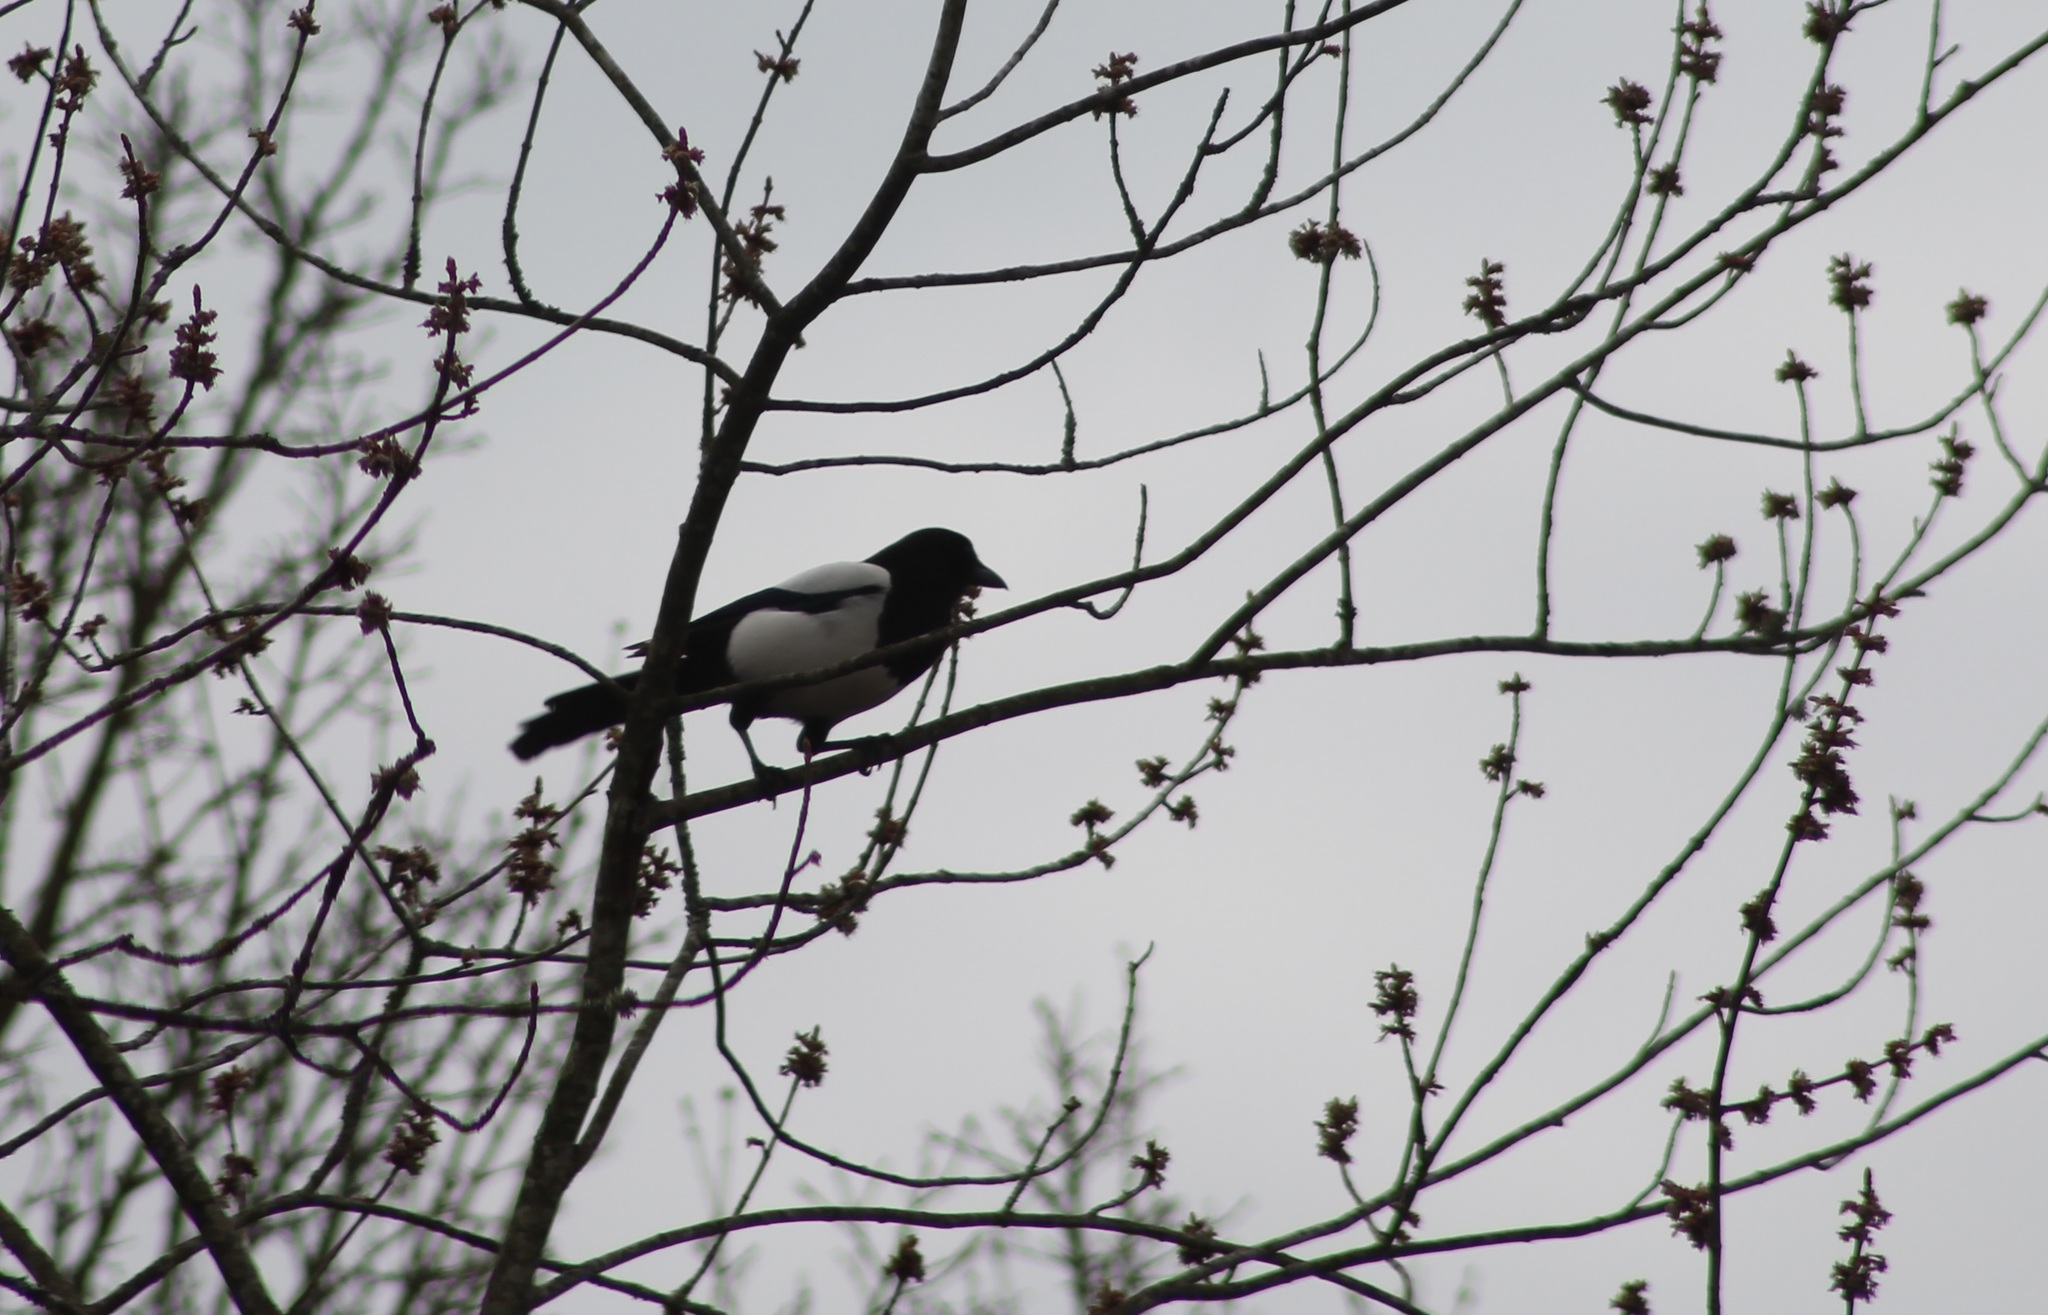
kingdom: Animalia
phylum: Chordata
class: Aves
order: Passeriformes
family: Corvidae
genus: Pica
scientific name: Pica pica
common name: Eurasian magpie
